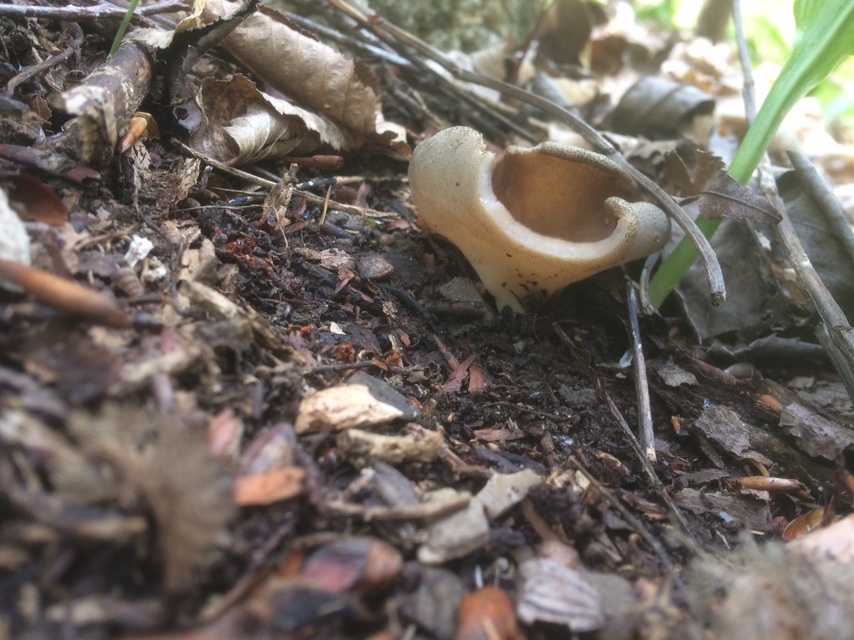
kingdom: Fungi
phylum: Ascomycota
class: Pezizomycetes
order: Pezizales
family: Morchellaceae
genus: Disciotis
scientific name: Disciotis venosa
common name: Bleach cup
